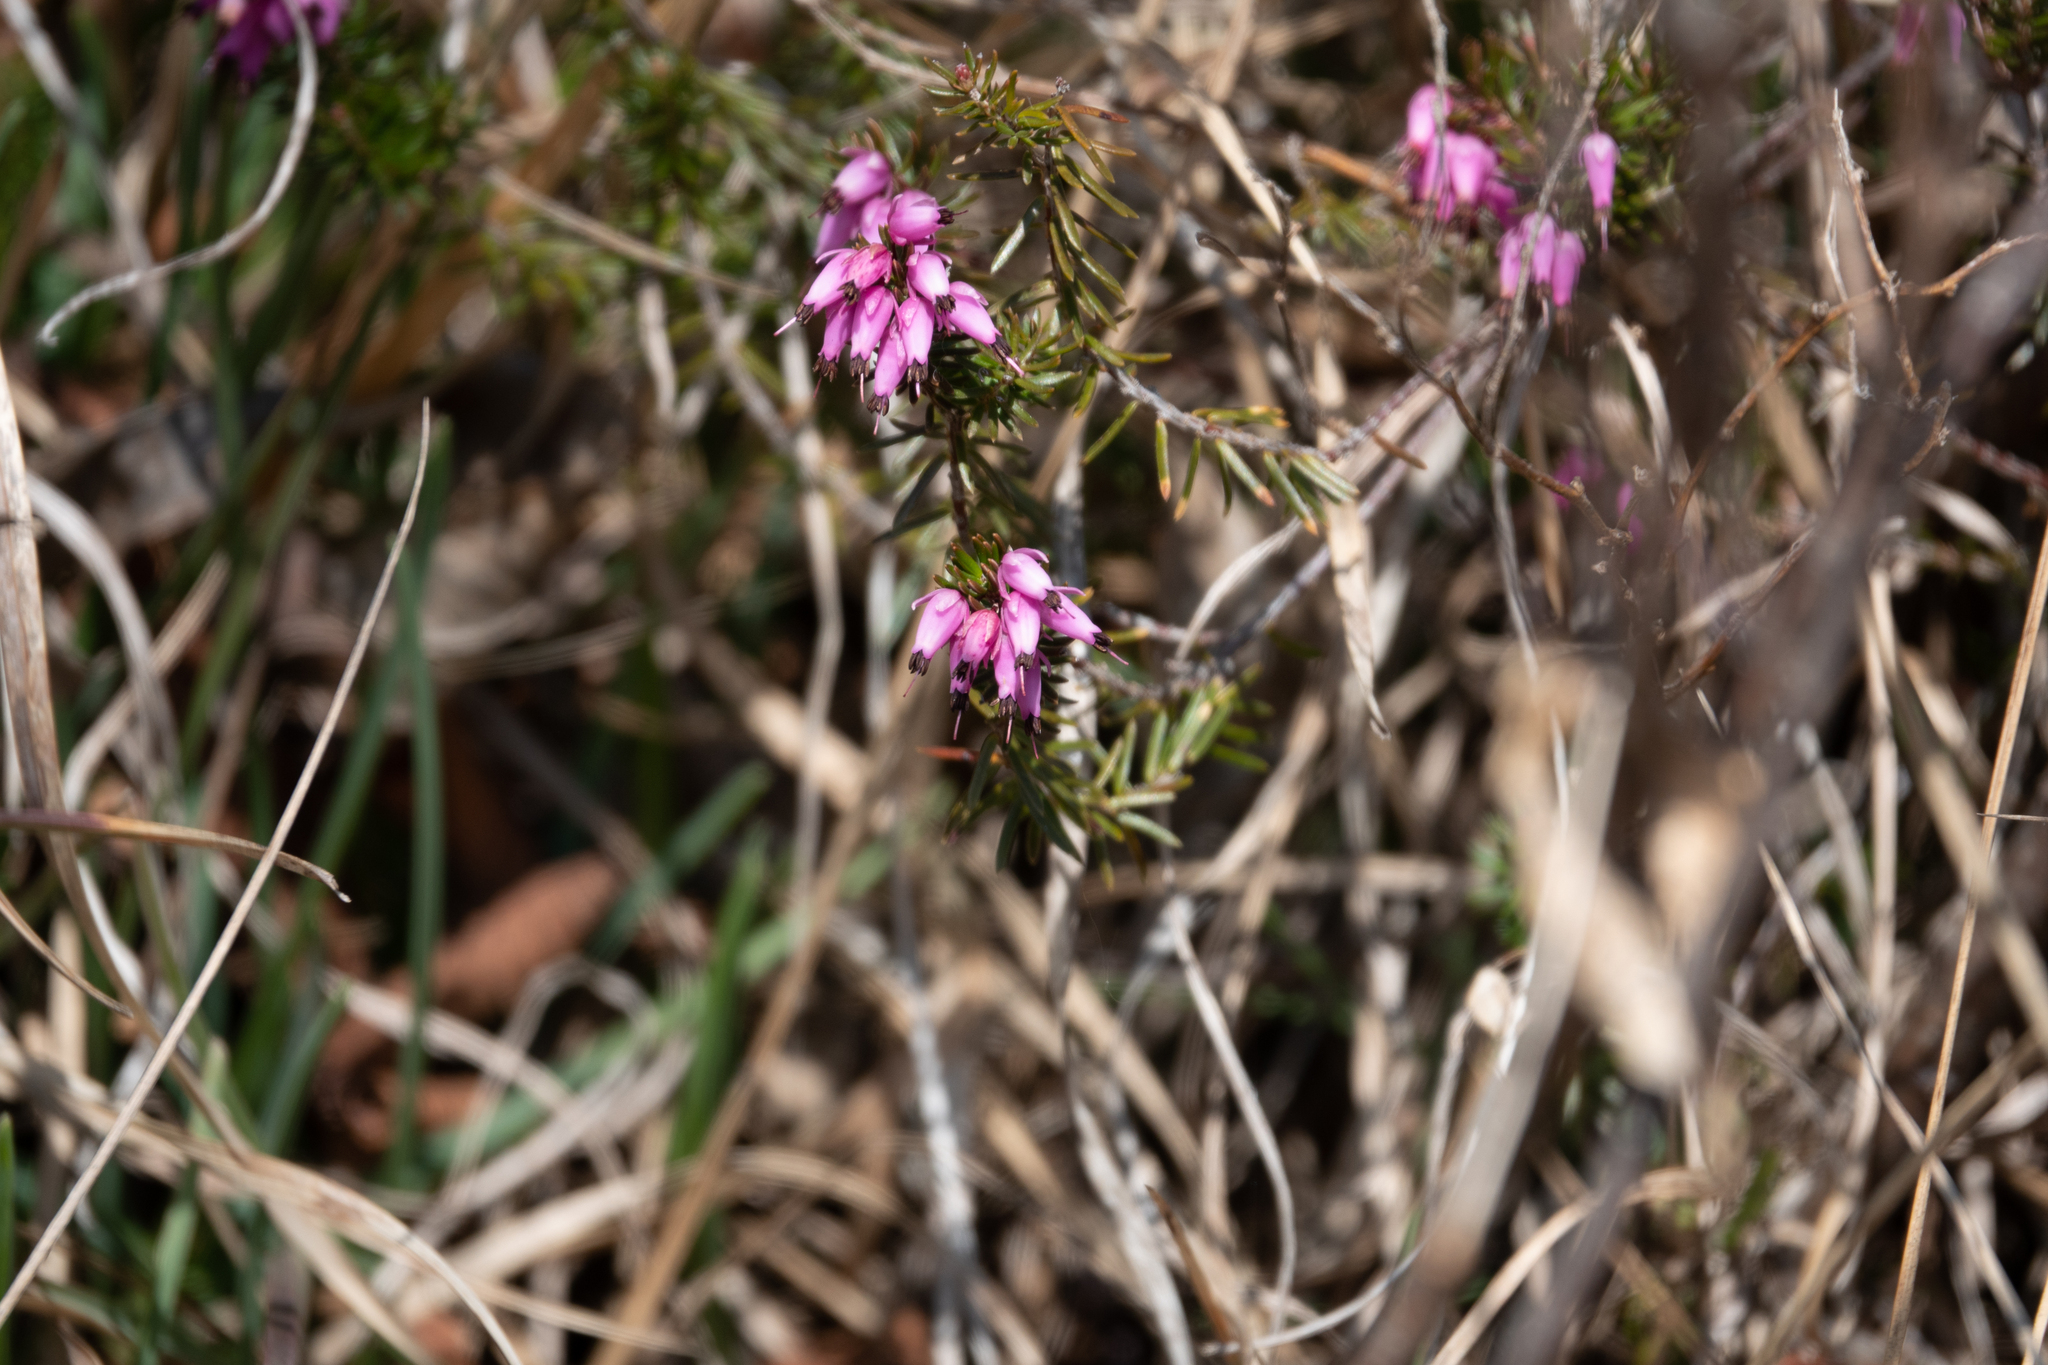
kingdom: Plantae
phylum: Tracheophyta
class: Magnoliopsida
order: Ericales
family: Ericaceae
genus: Erica
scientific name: Erica carnea
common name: Winter heath
